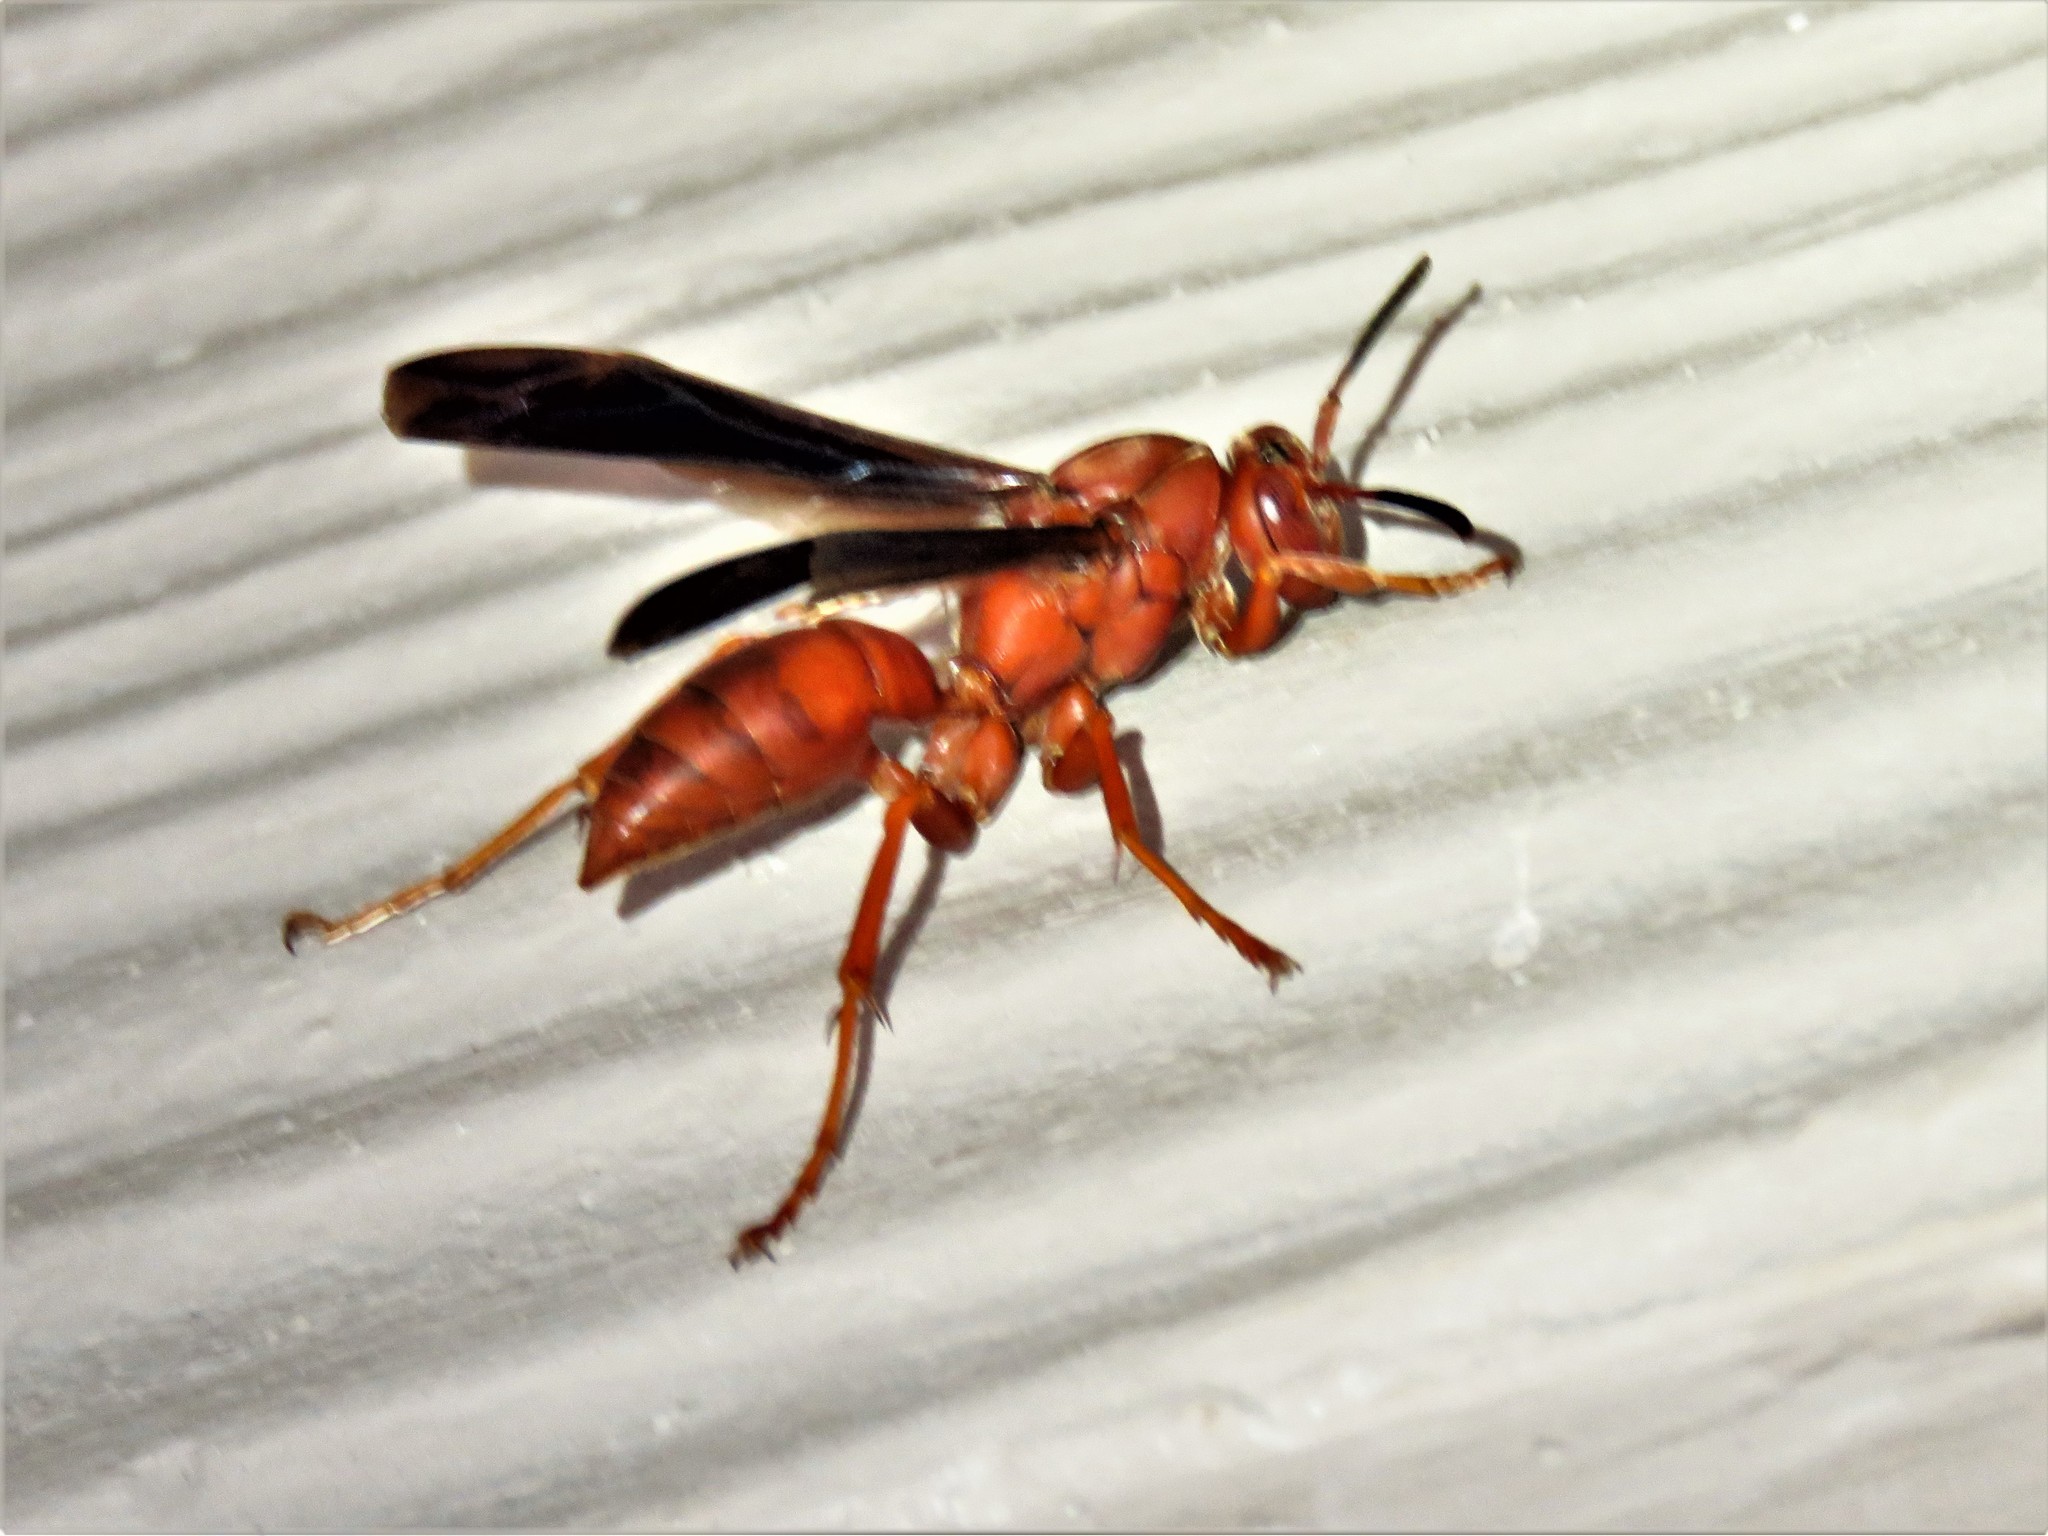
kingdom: Animalia
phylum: Arthropoda
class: Insecta
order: Hymenoptera
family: Vespidae
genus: Fuscopolistes
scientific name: Fuscopolistes
